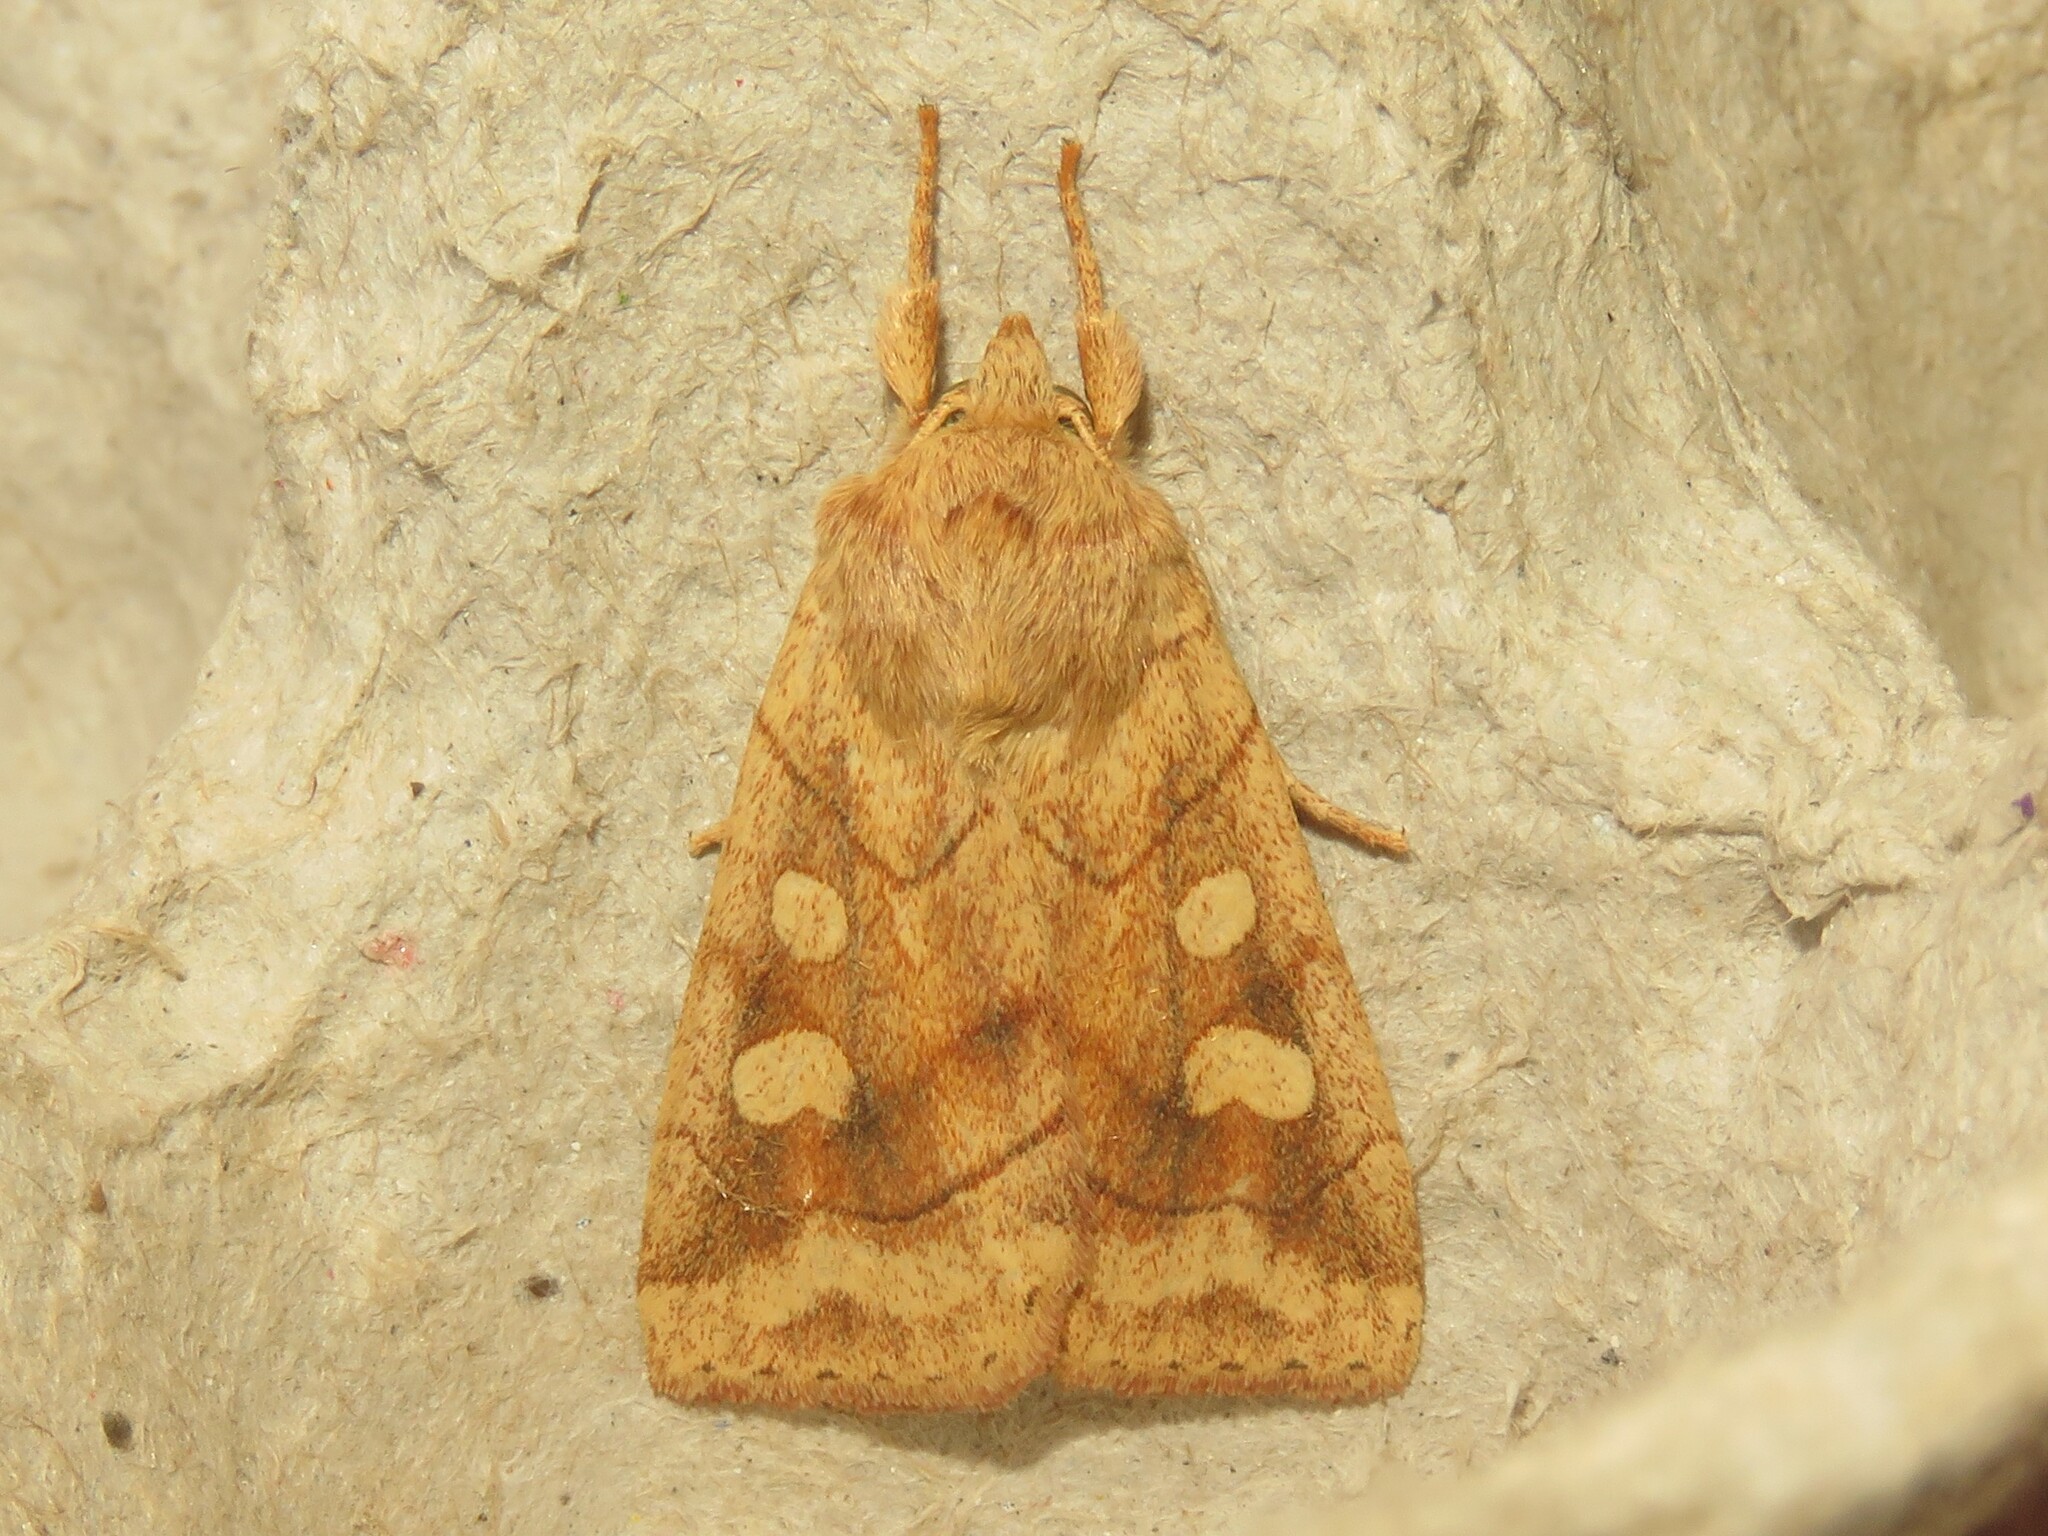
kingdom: Animalia
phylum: Arthropoda
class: Insecta
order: Lepidoptera
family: Noctuidae
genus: Enargia
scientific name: Enargia decolor
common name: Aspen twoleaf tier moth
